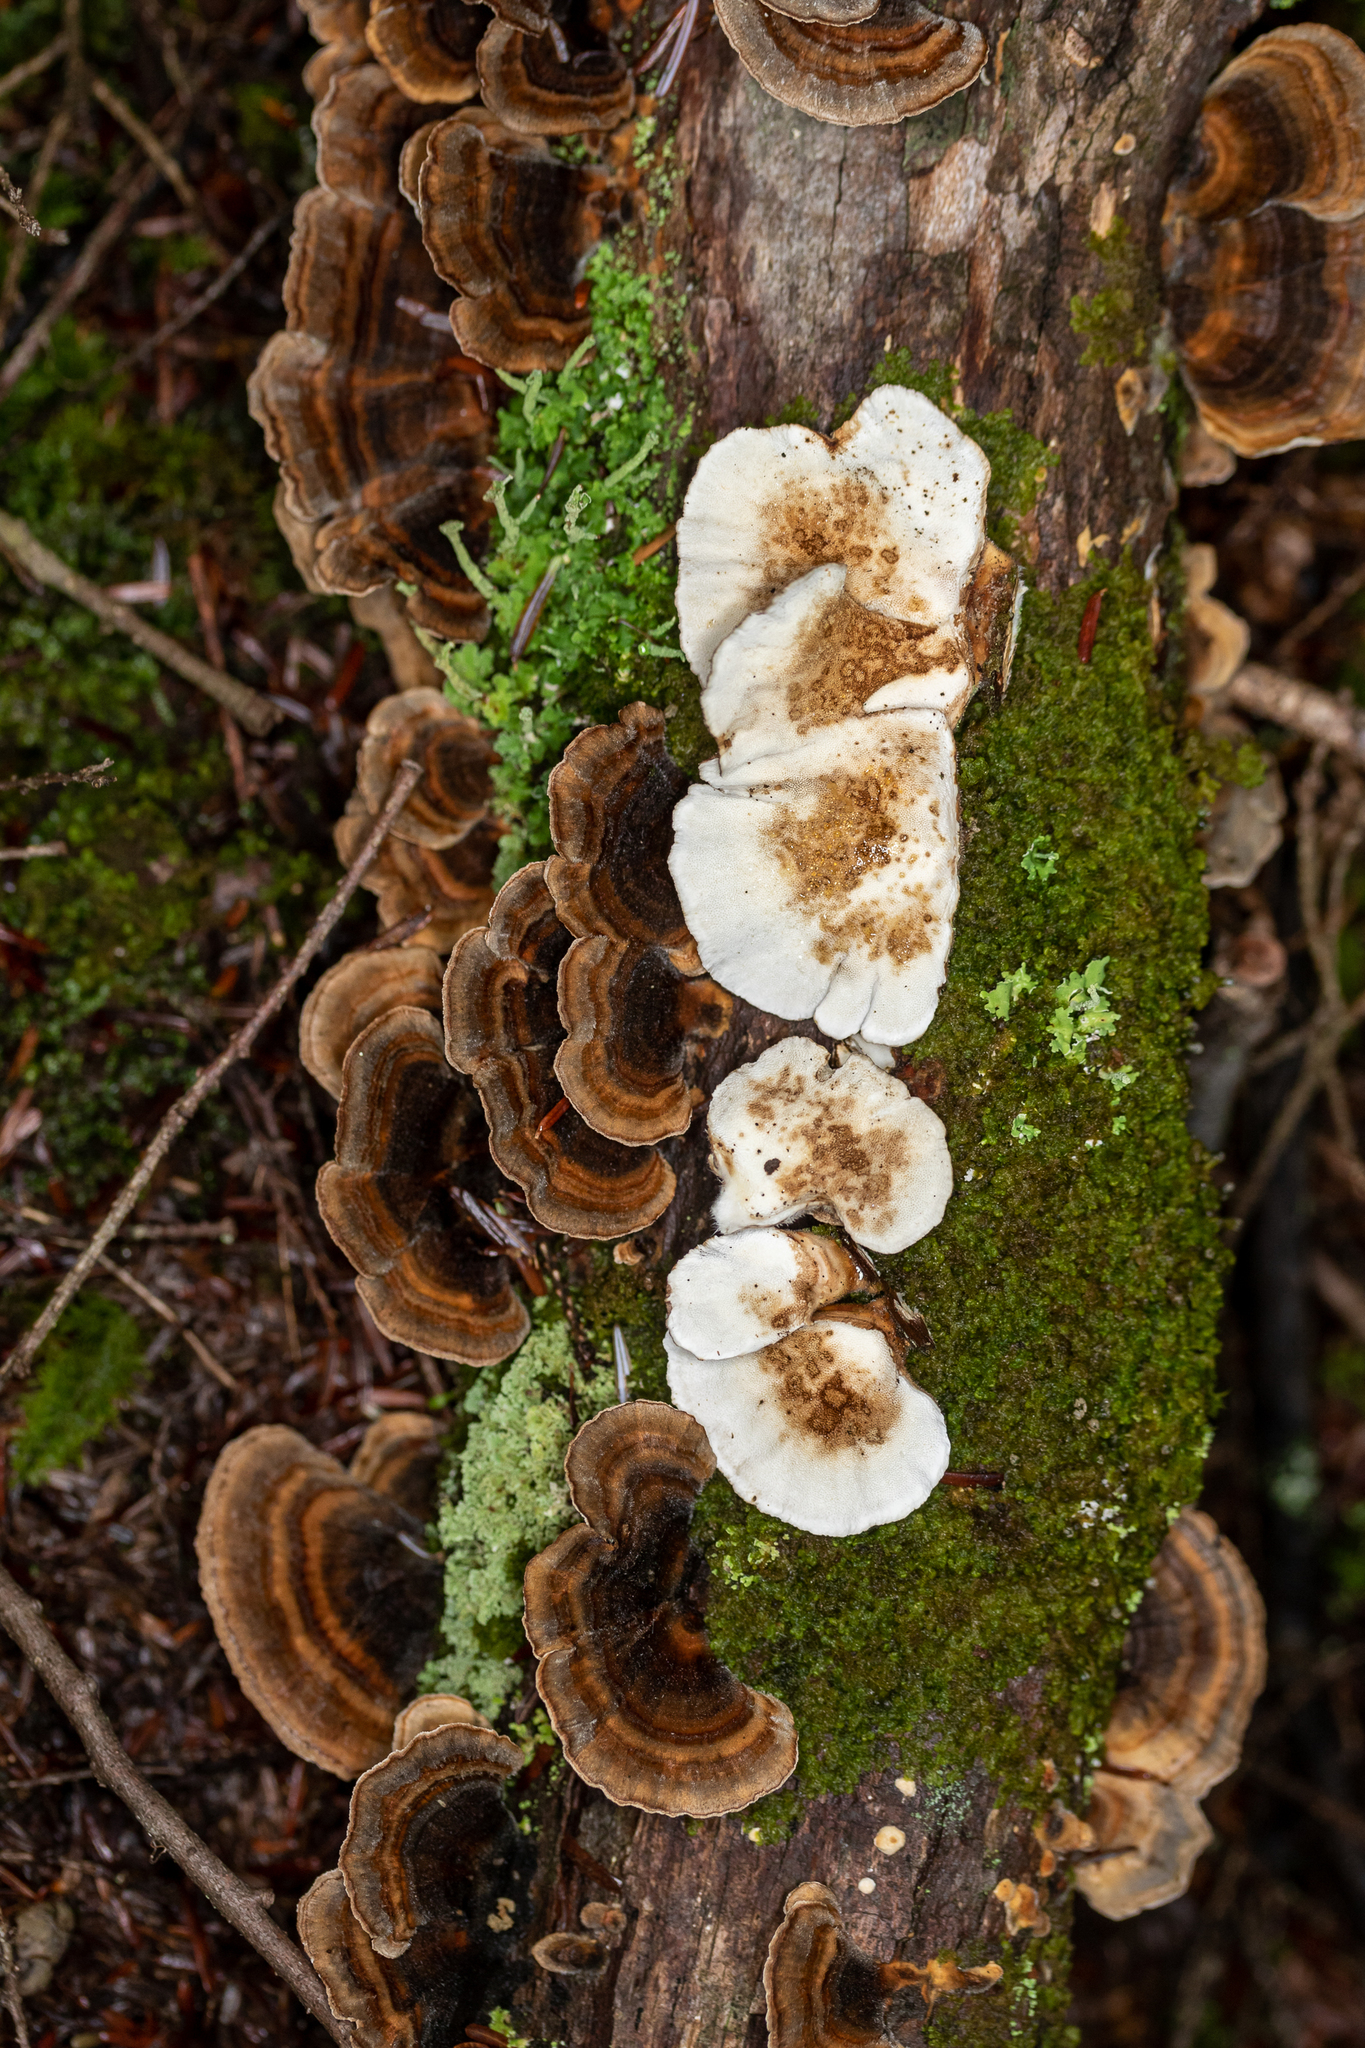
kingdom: Fungi
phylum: Basidiomycota
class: Agaricomycetes
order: Polyporales
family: Polyporaceae
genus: Trametes
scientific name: Trametes versicolor
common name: Turkeytail
